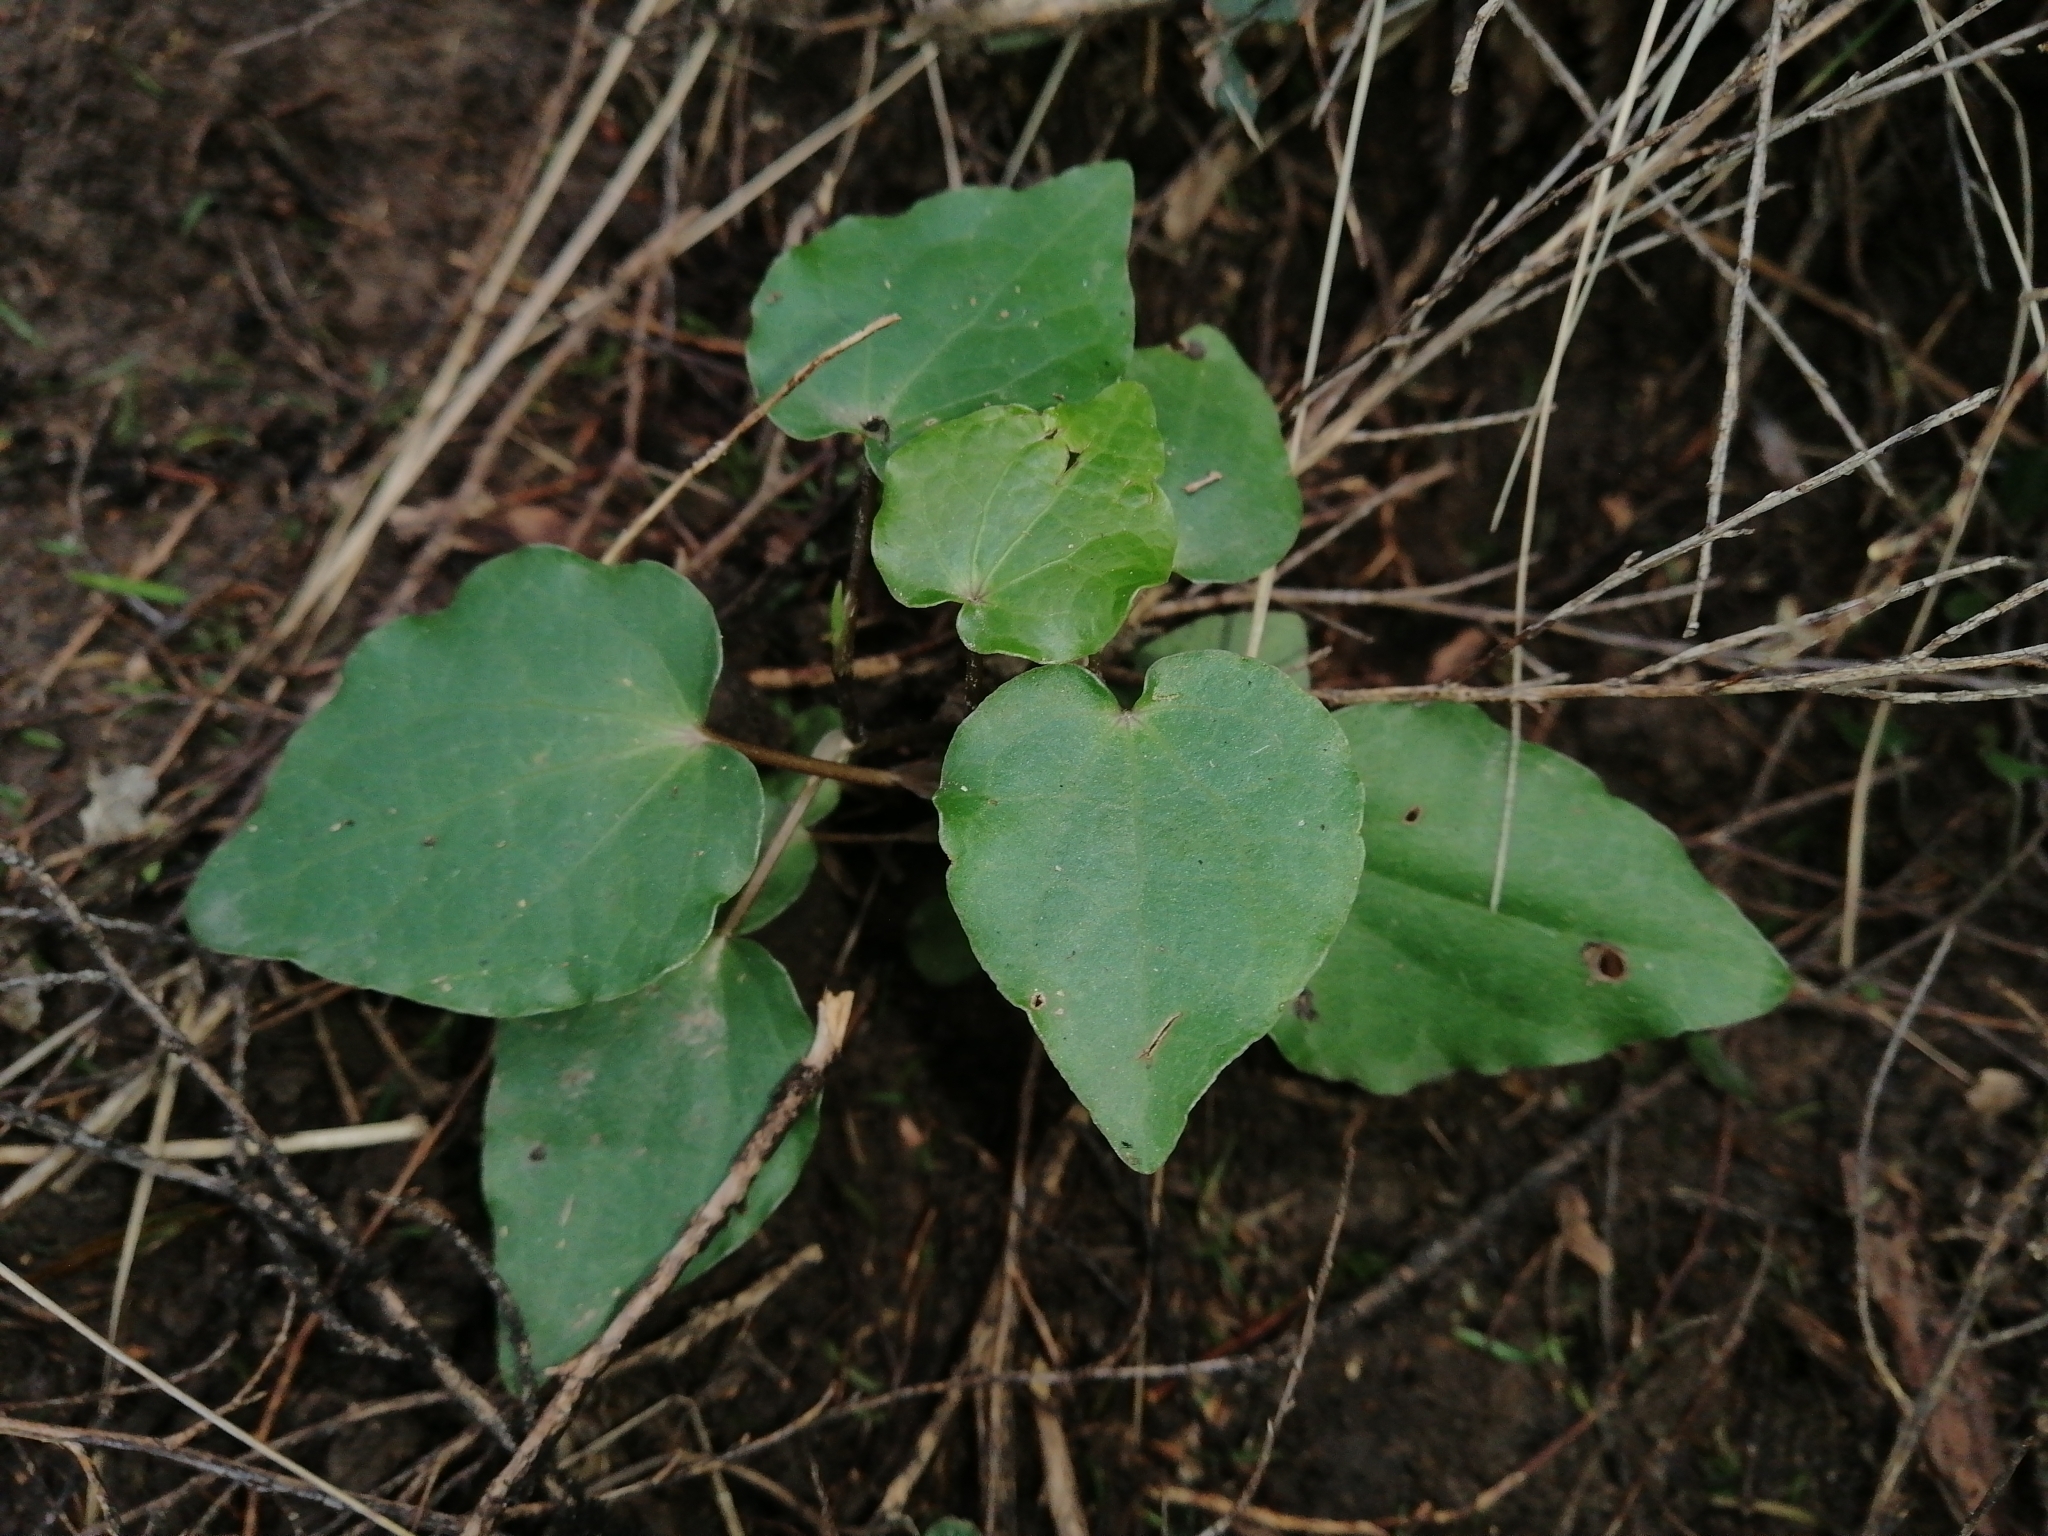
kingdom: Plantae
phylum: Tracheophyta
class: Magnoliopsida
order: Piperales
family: Piperaceae
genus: Macropiper
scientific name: Macropiper excelsum
